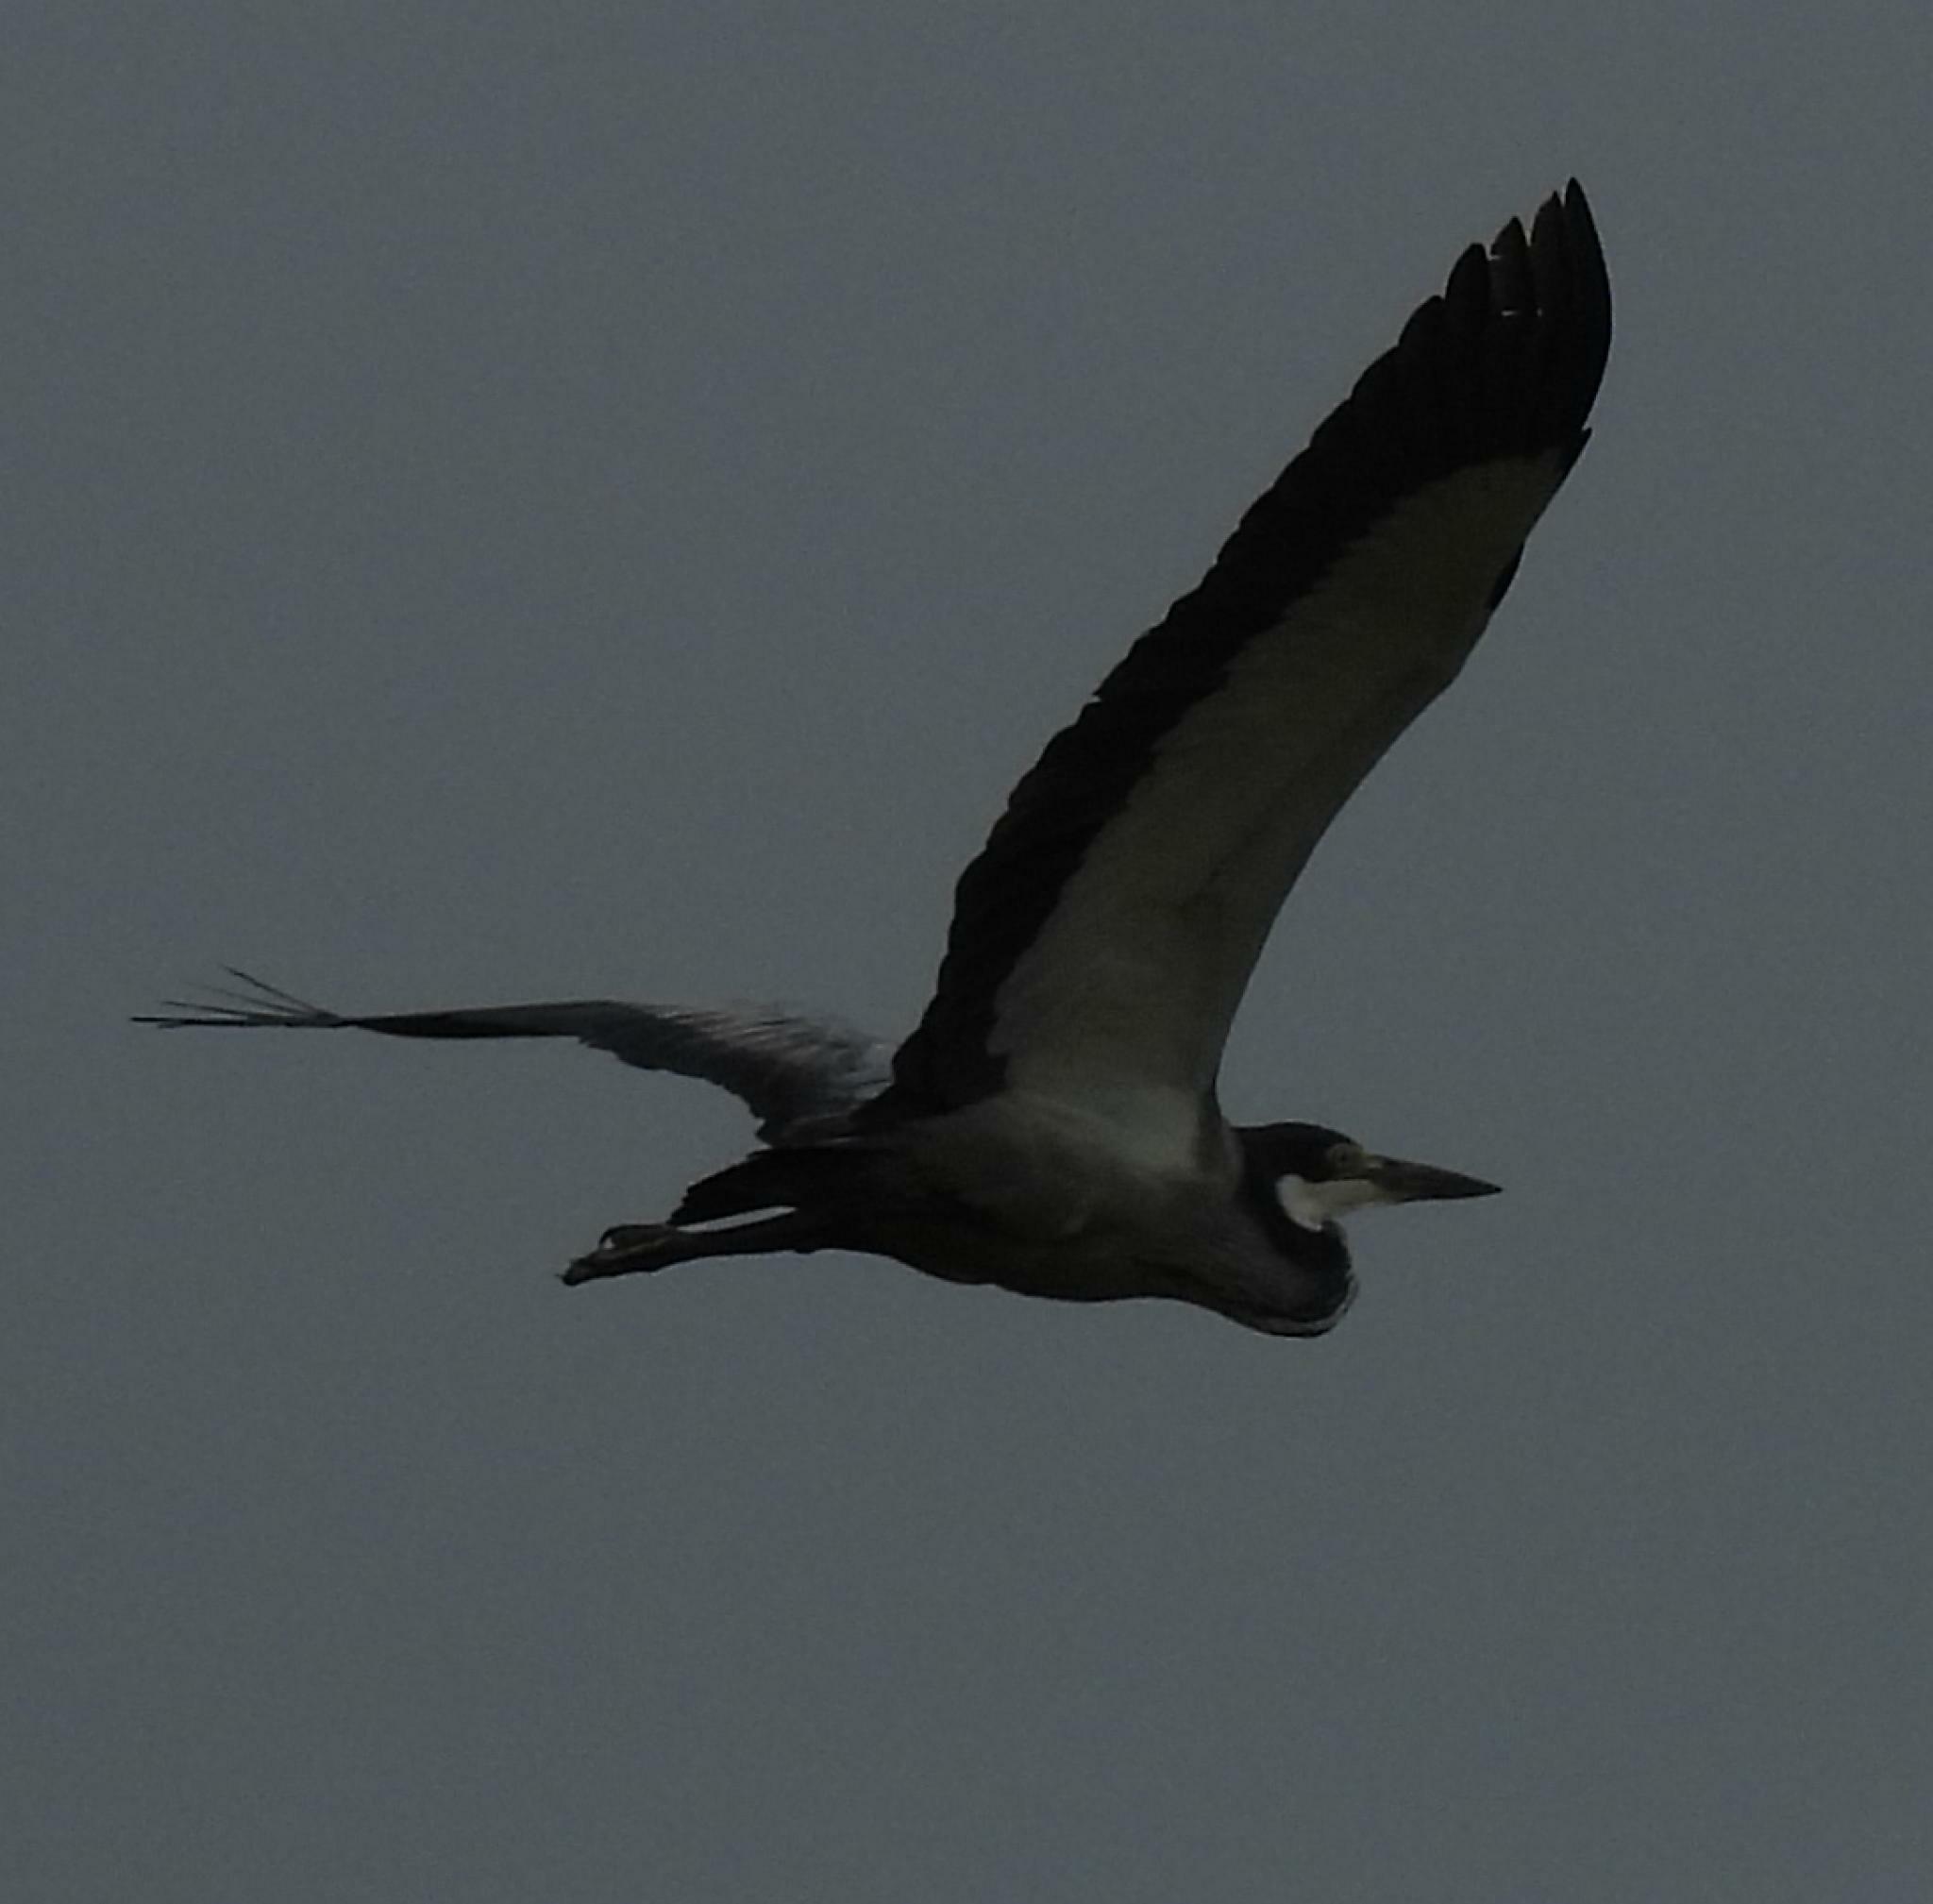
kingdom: Animalia
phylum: Chordata
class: Aves
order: Pelecaniformes
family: Ardeidae
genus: Ardea
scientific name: Ardea melanocephala
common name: Black-headed heron
